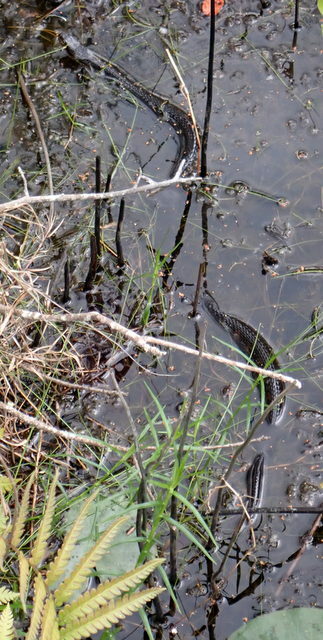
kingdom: Animalia
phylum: Chordata
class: Squamata
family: Colubridae
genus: Nerodia
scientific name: Nerodia fasciata
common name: Southern water snake
